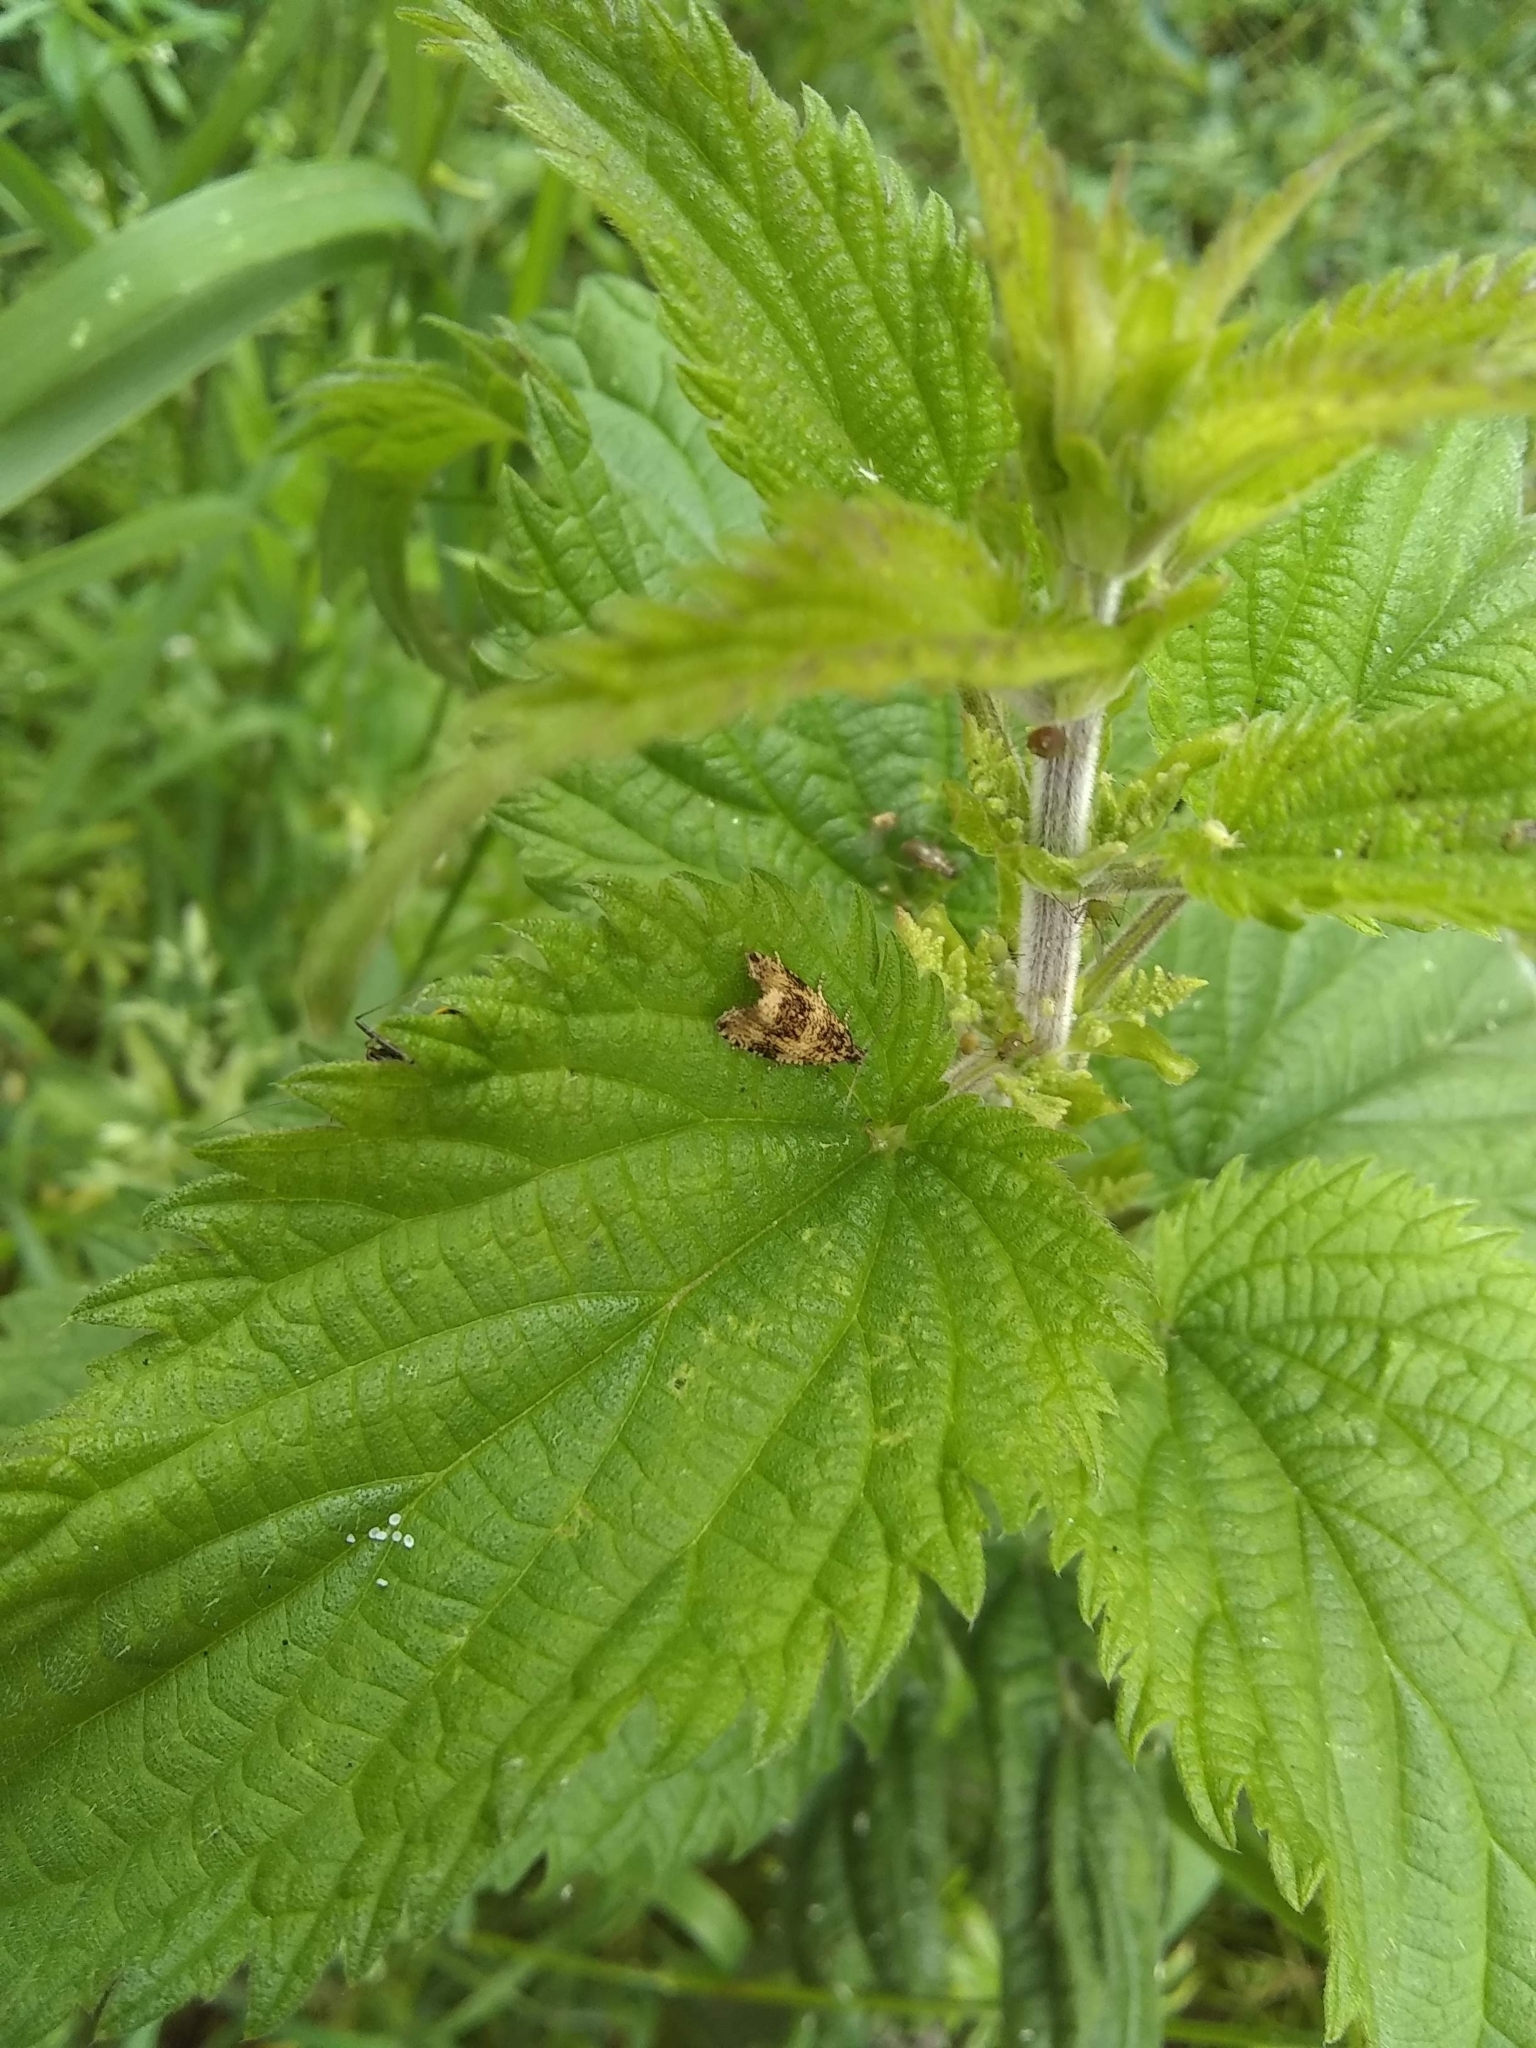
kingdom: Animalia
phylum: Arthropoda
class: Insecta
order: Lepidoptera
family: Tortricidae
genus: Syricoris
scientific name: Syricoris lacunana
